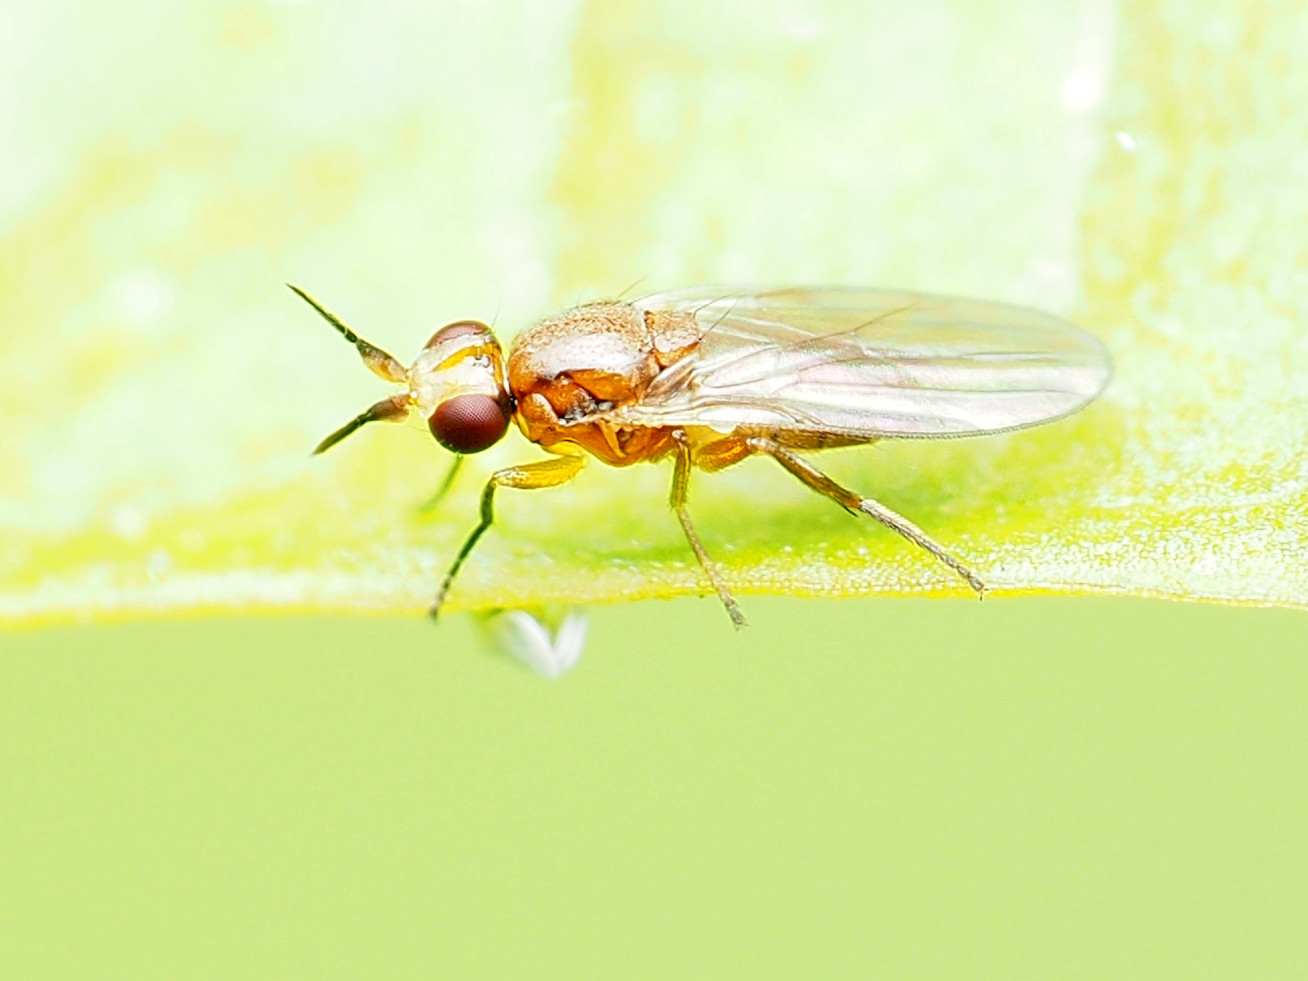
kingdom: Animalia
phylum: Arthropoda
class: Insecta
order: Diptera
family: Chloropidae
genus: Ceratobarys
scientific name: Ceratobarys eulophus
